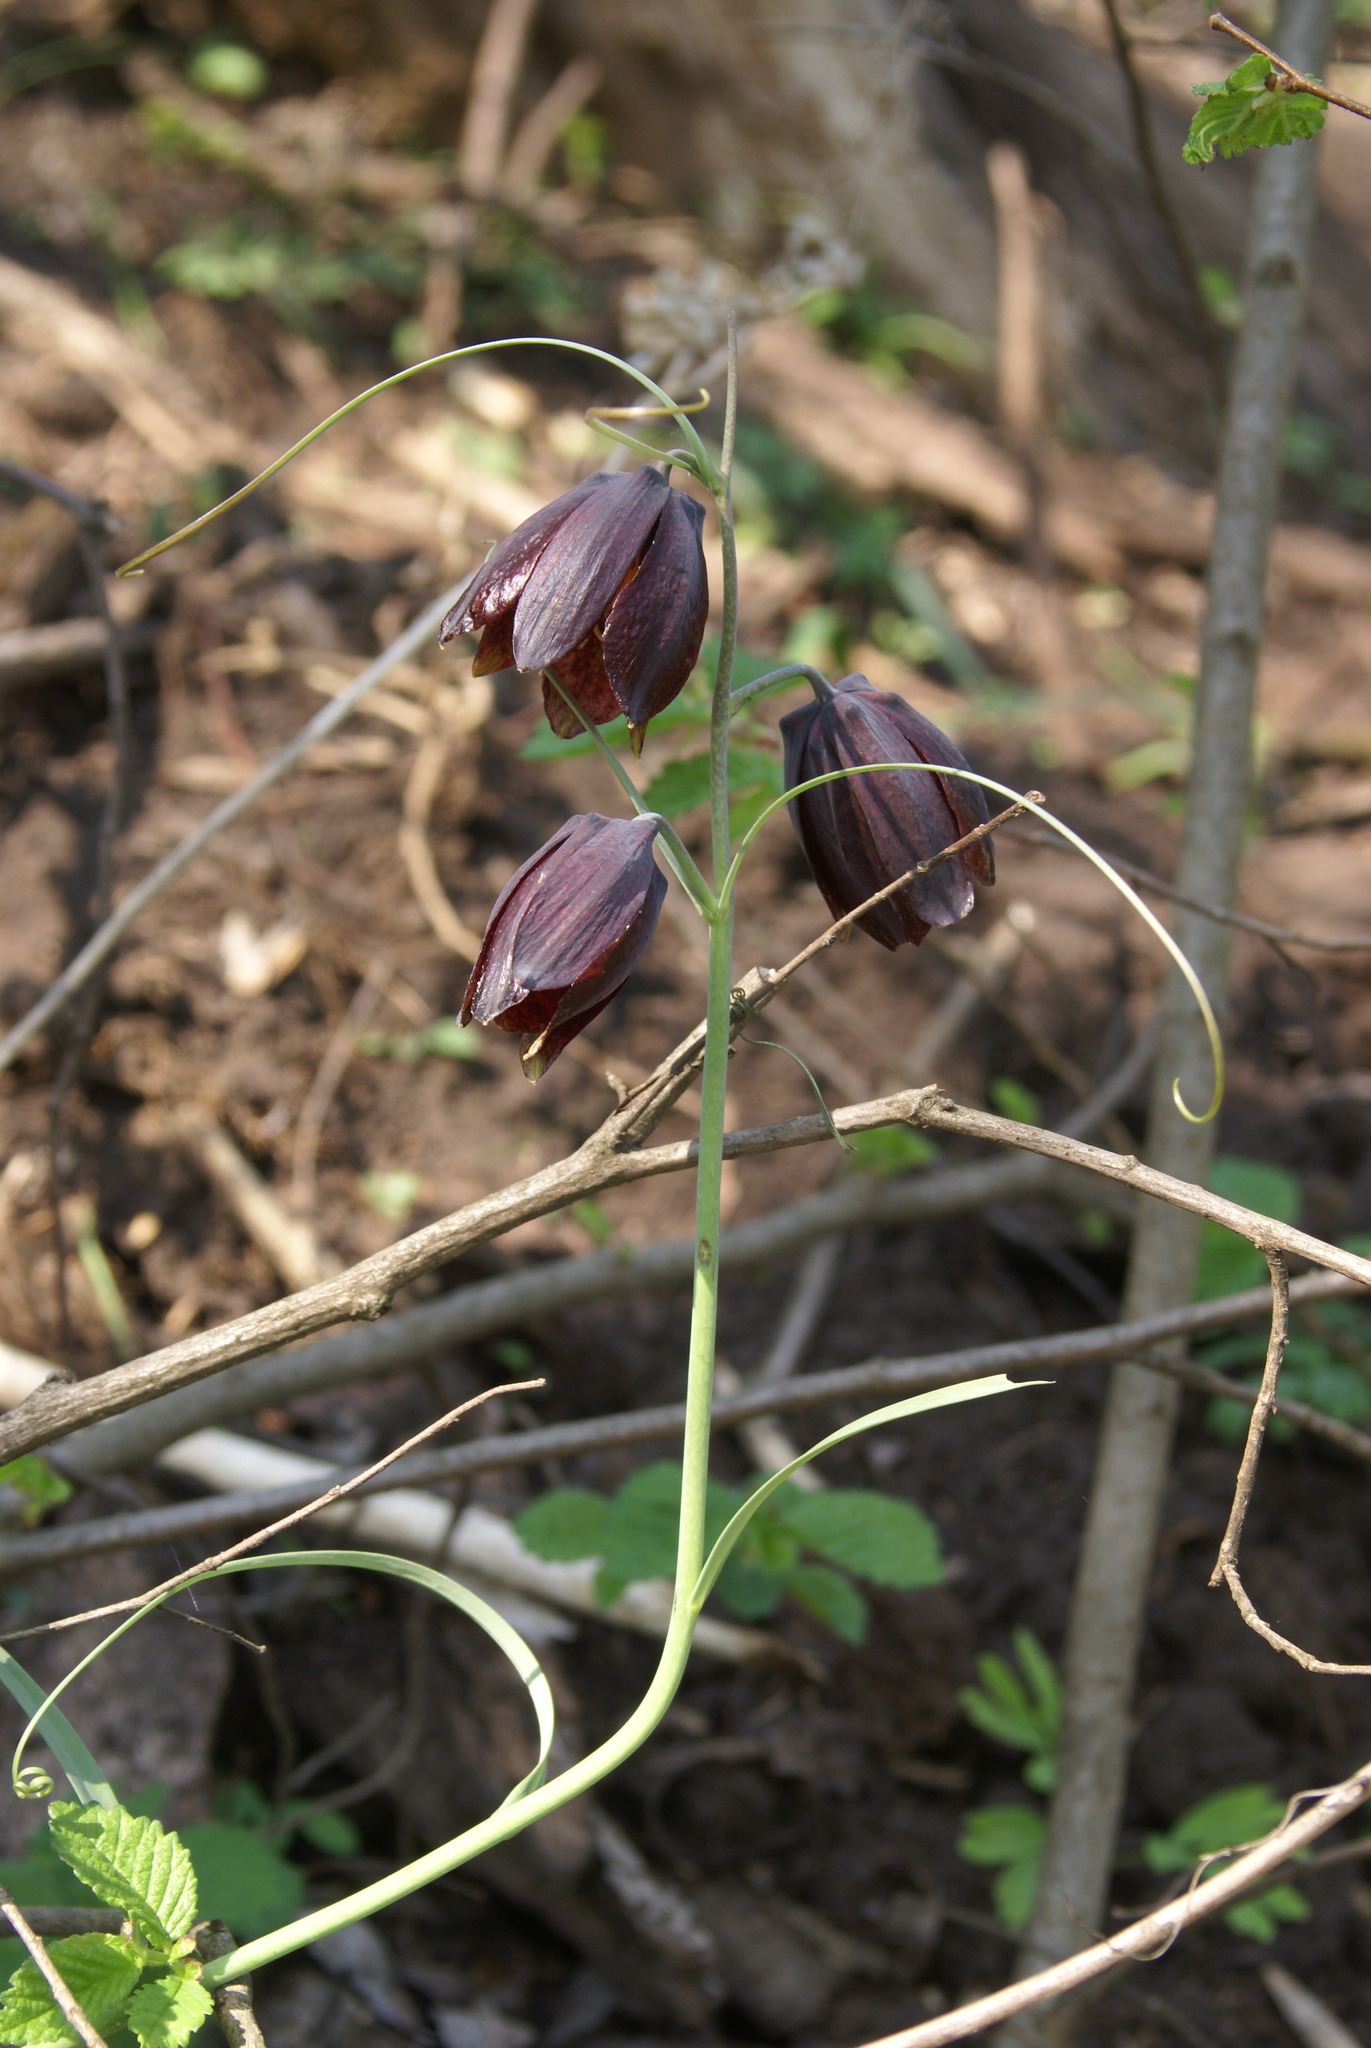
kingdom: Plantae
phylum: Tracheophyta
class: Liliopsida
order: Liliales
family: Liliaceae
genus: Fritillaria
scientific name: Fritillaria ruthenica
